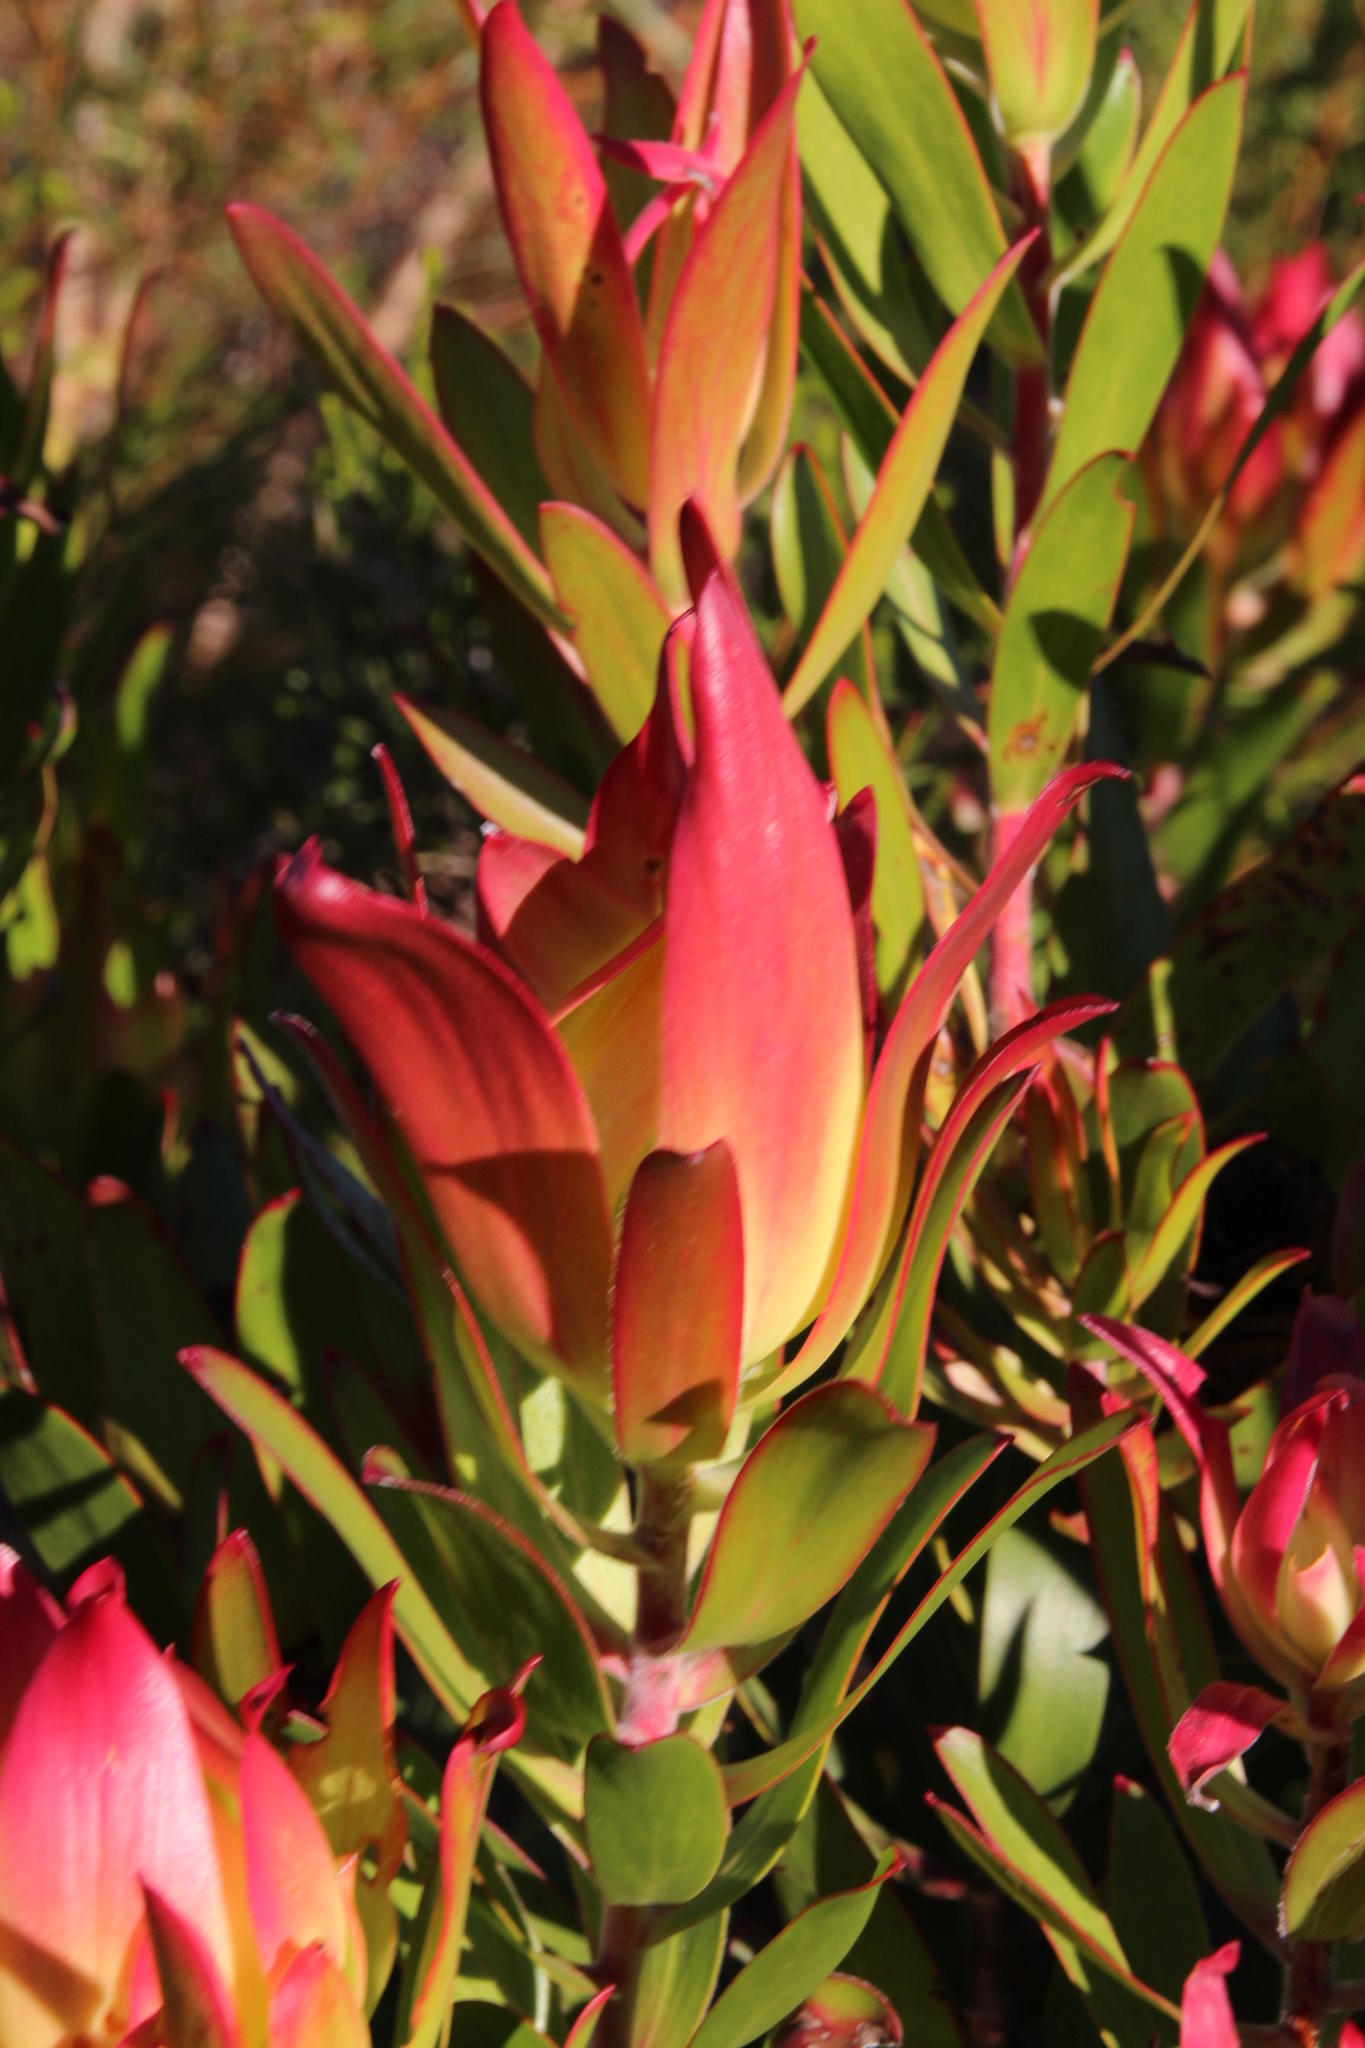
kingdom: Plantae
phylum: Tracheophyta
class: Magnoliopsida
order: Proteales
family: Proteaceae
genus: Leucadendron
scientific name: Leucadendron gandogeri
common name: Broad-leaf conebush
